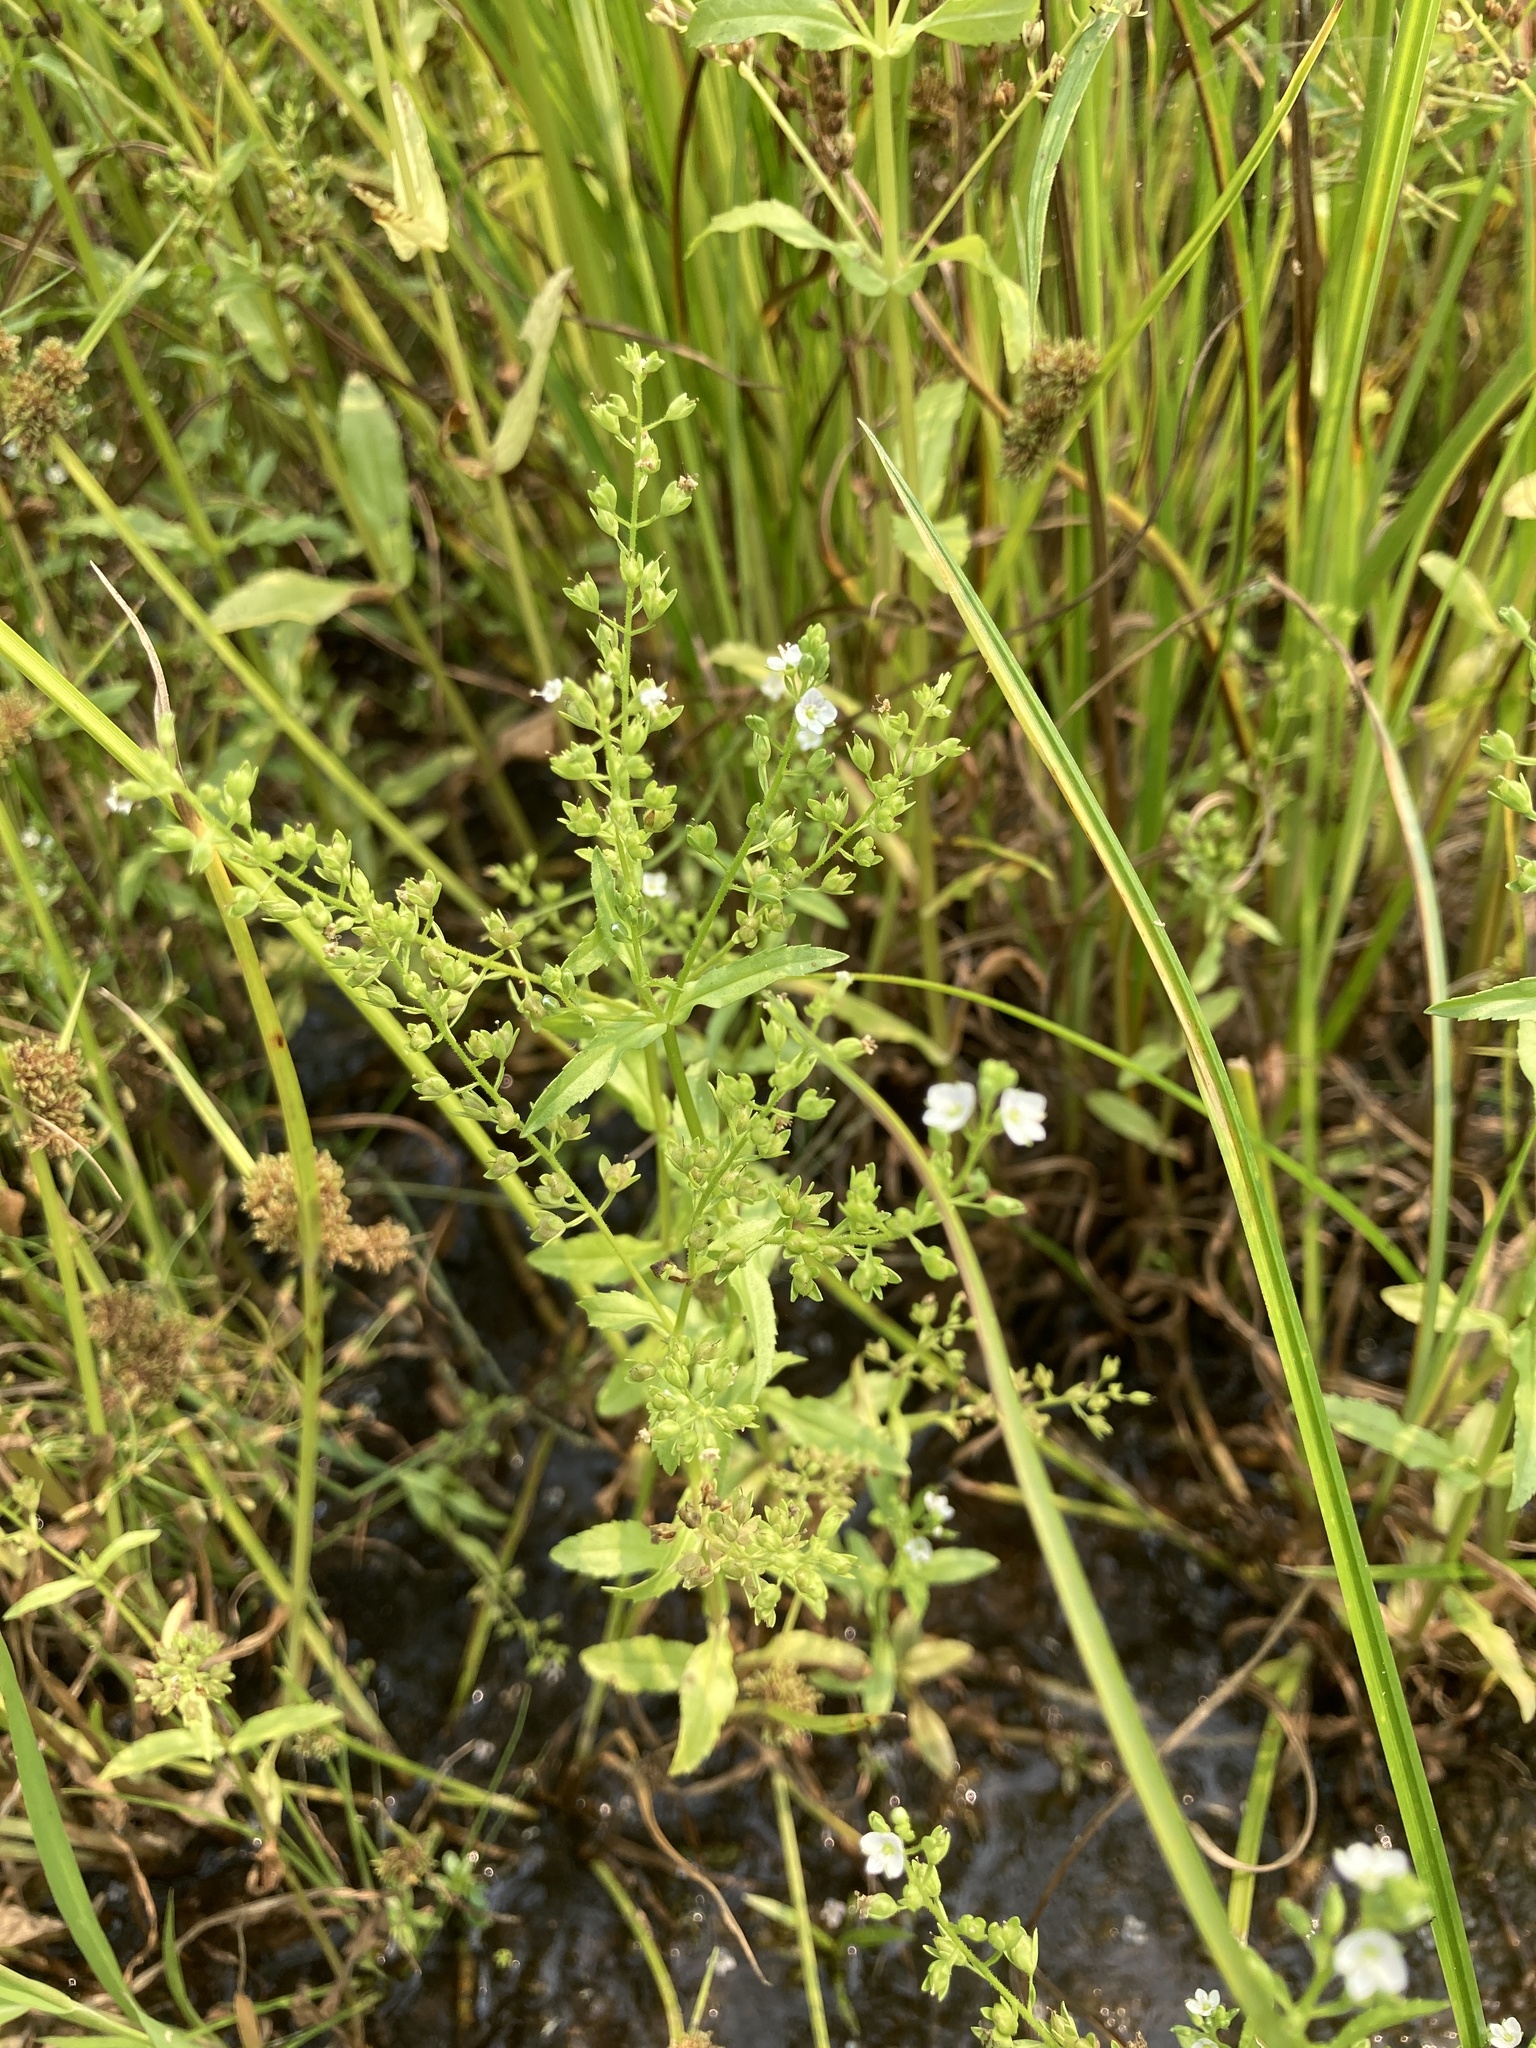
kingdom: Plantae
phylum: Tracheophyta
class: Magnoliopsida
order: Lamiales
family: Plantaginaceae
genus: Veronica
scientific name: Veronica undulata
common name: Undulate speedwell
